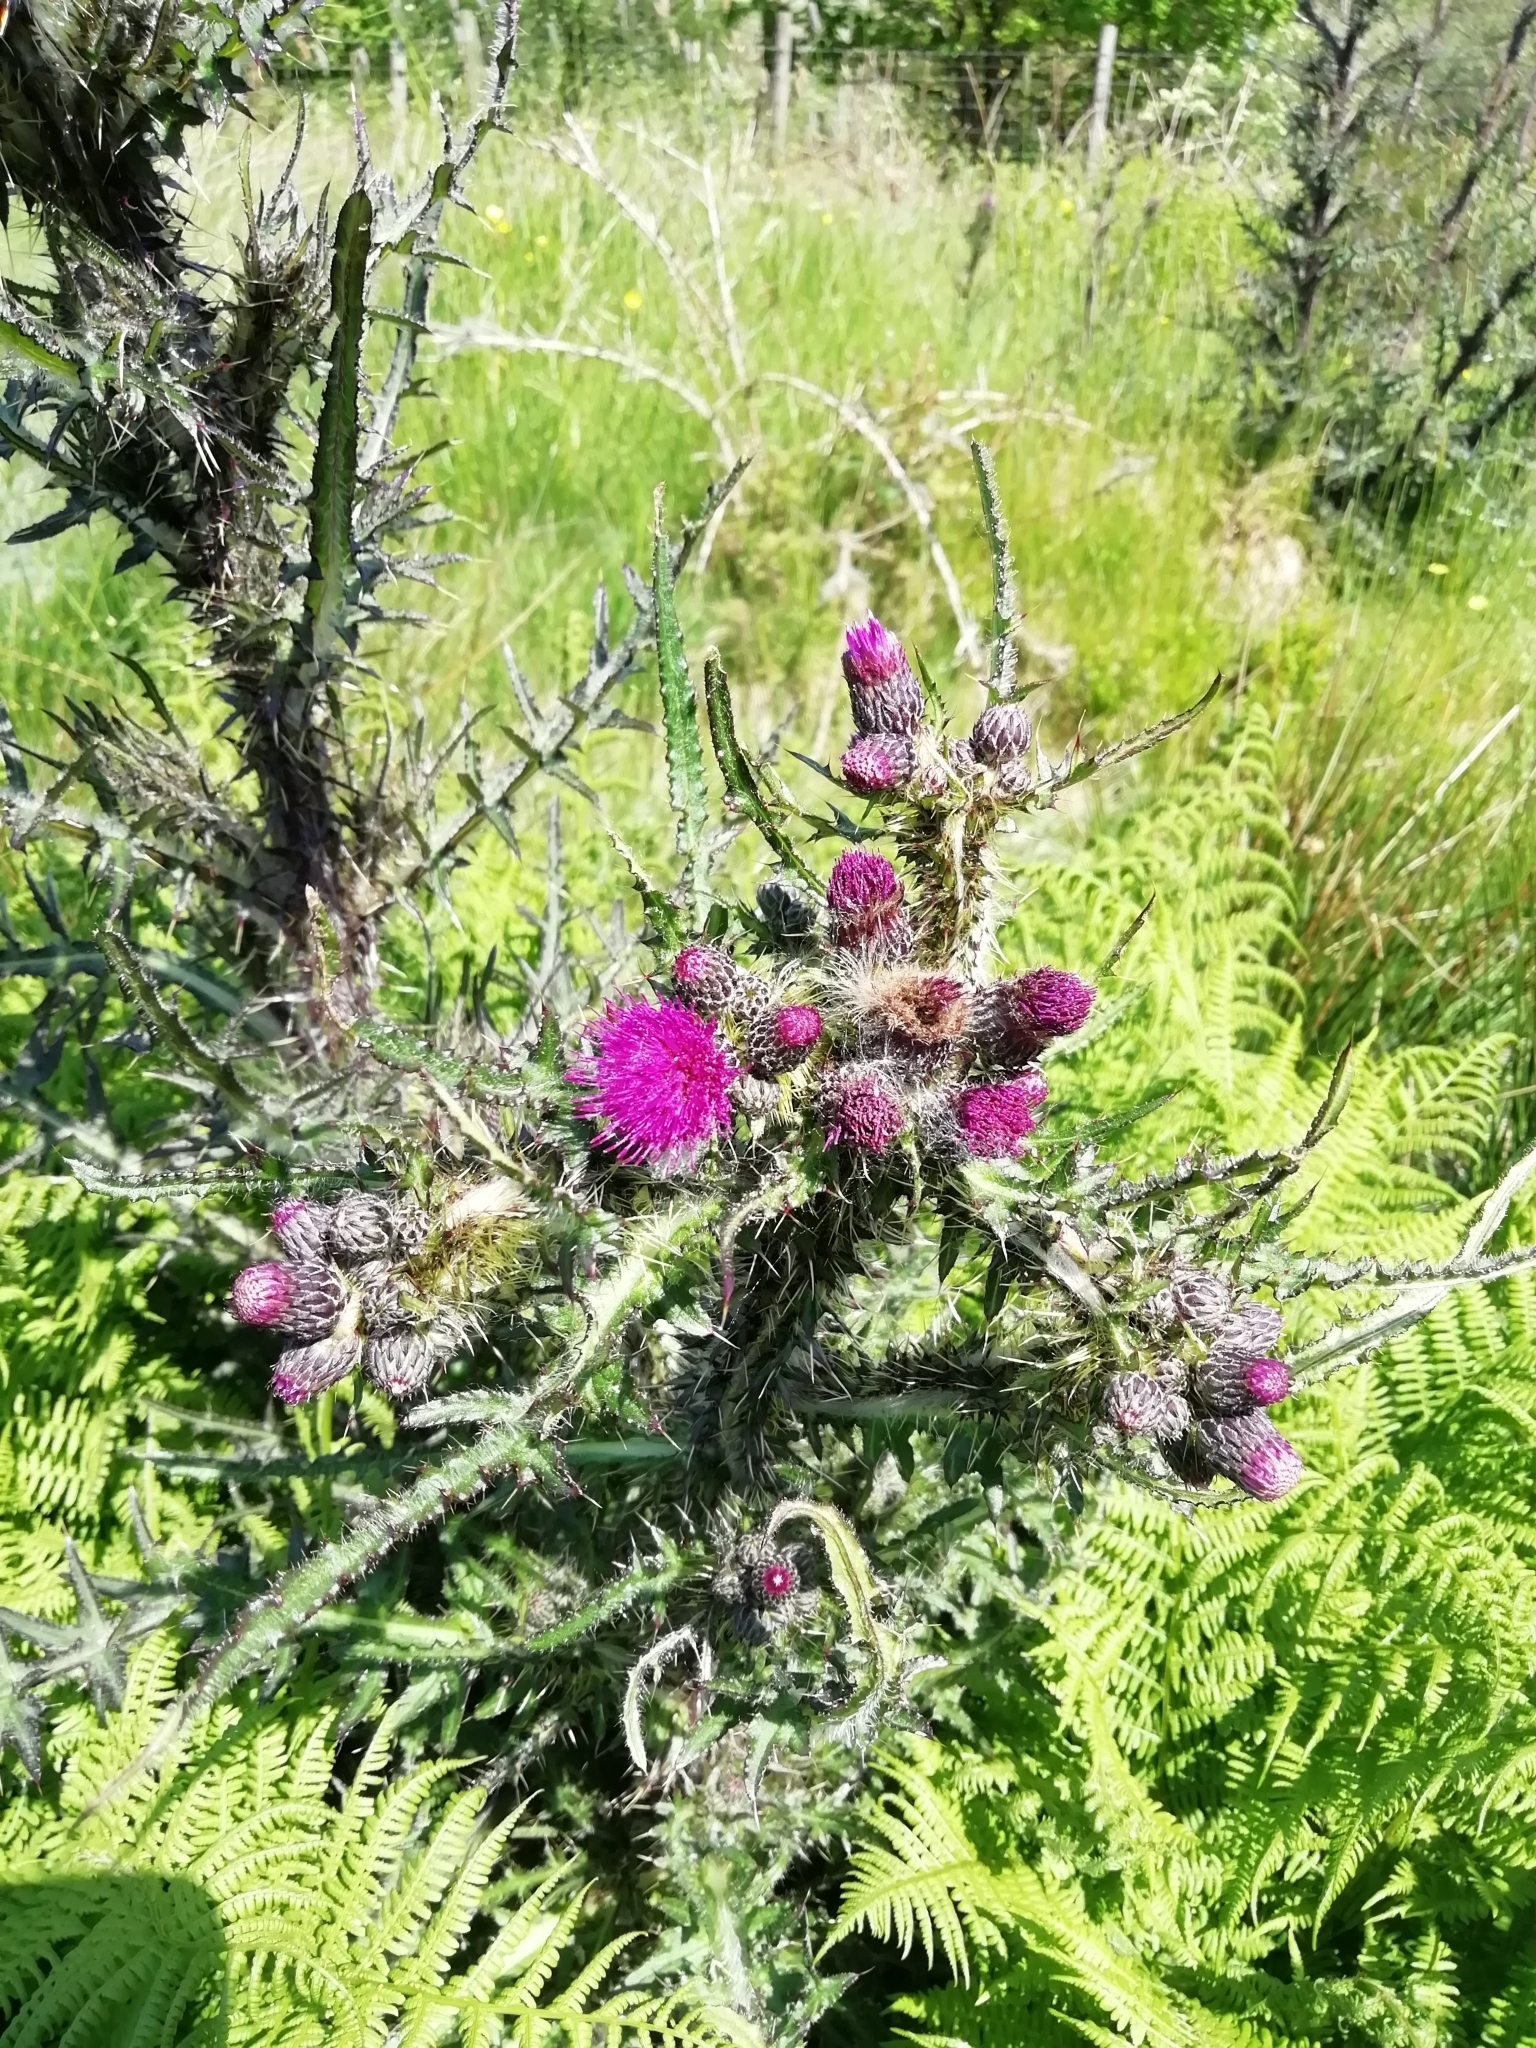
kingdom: Plantae
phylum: Tracheophyta
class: Magnoliopsida
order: Asterales
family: Asteraceae
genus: Cirsium
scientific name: Cirsium palustre
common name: Marsh thistle
